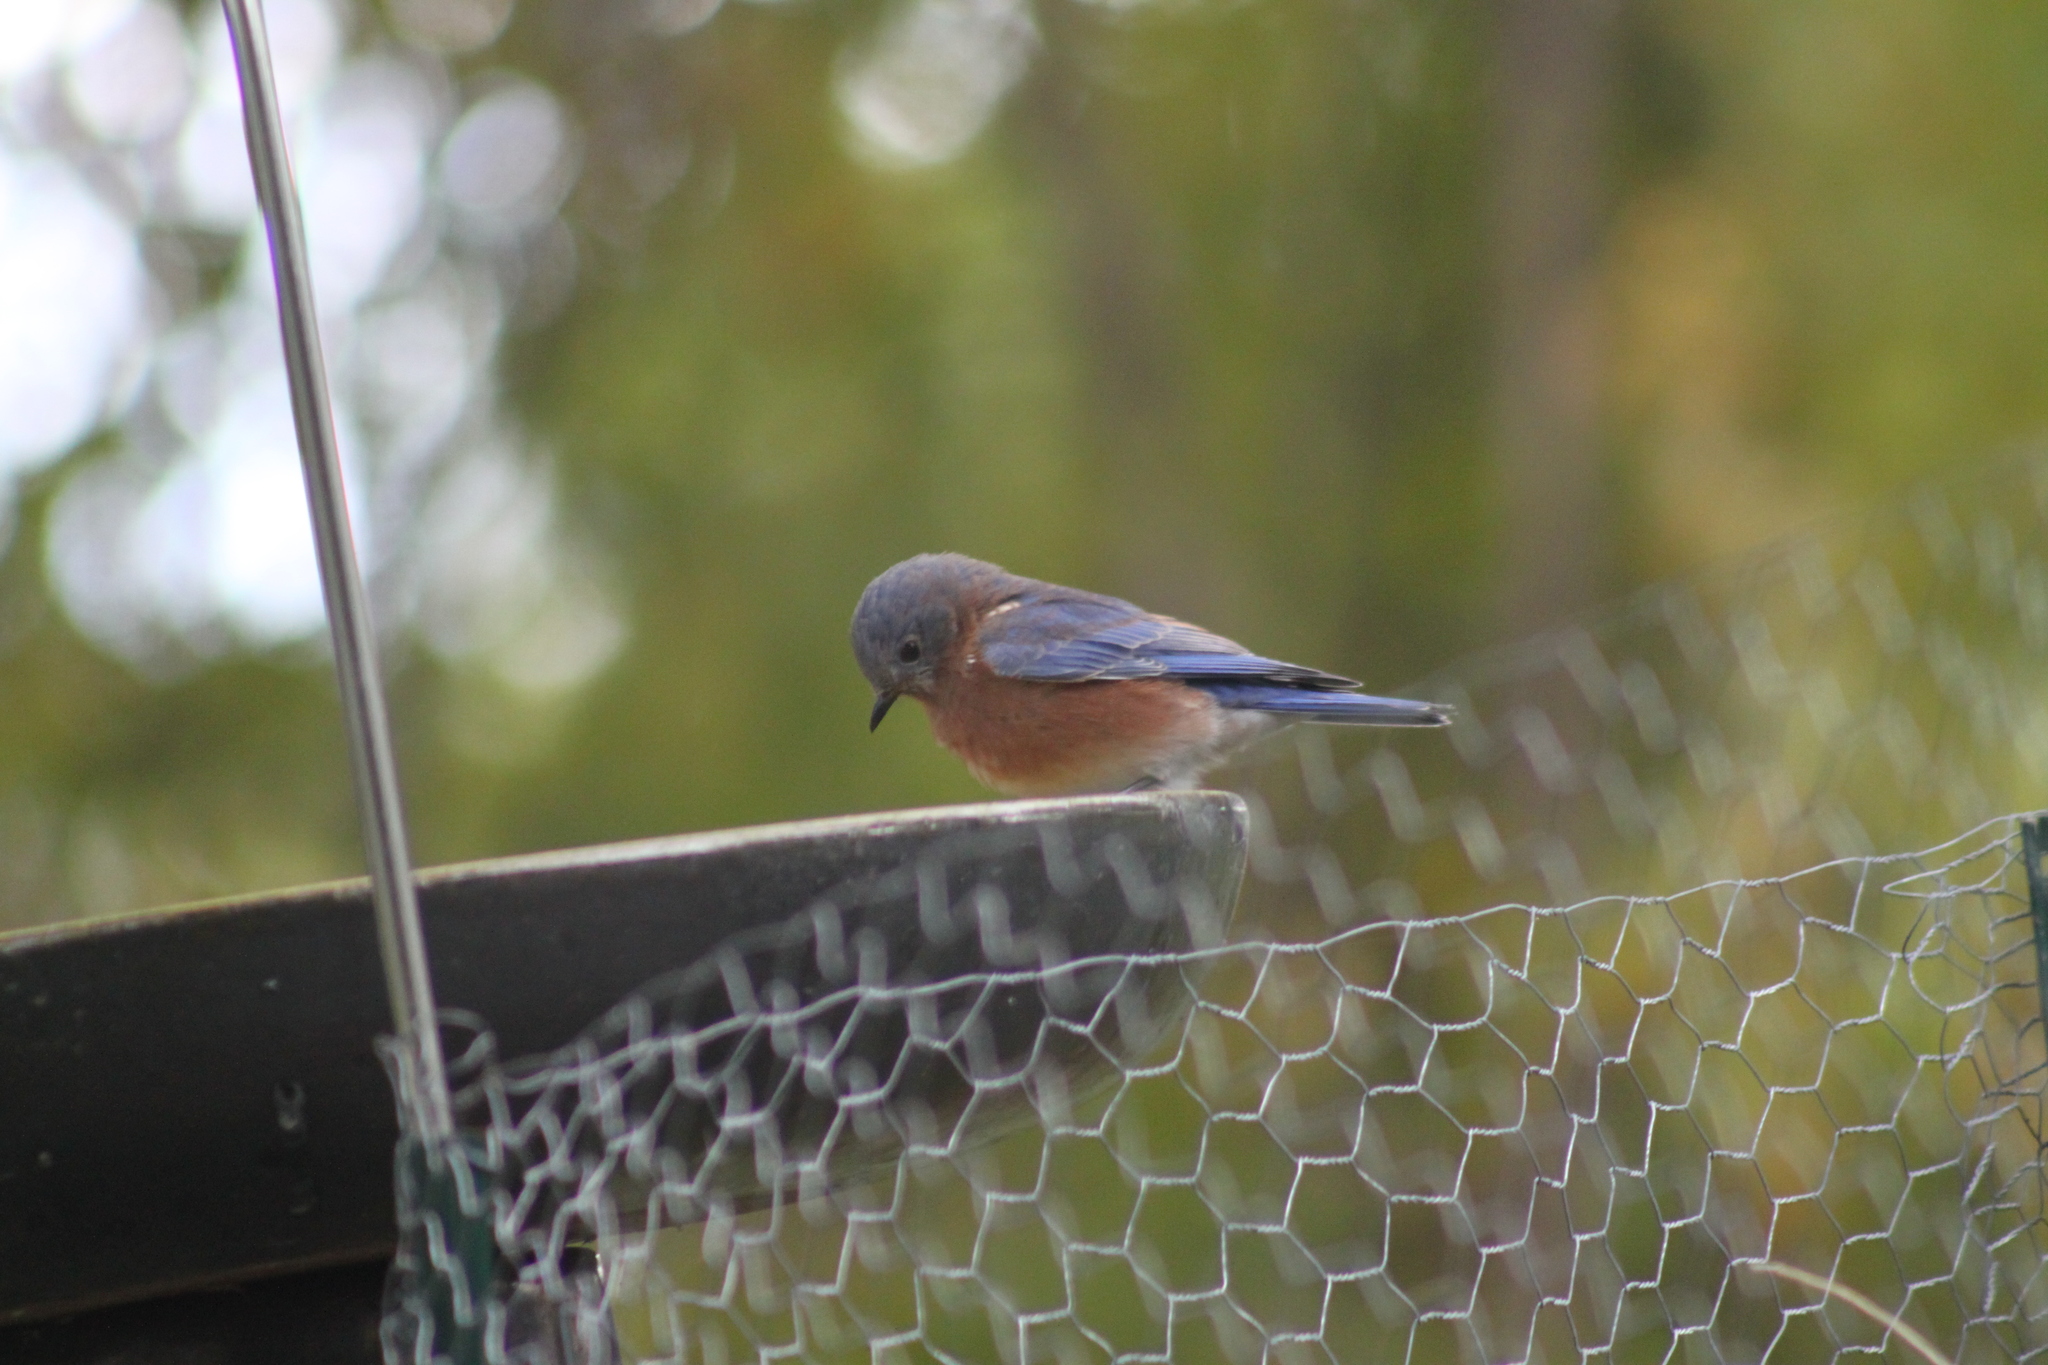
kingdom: Animalia
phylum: Chordata
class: Aves
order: Passeriformes
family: Turdidae
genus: Sialia
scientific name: Sialia sialis
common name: Eastern bluebird
